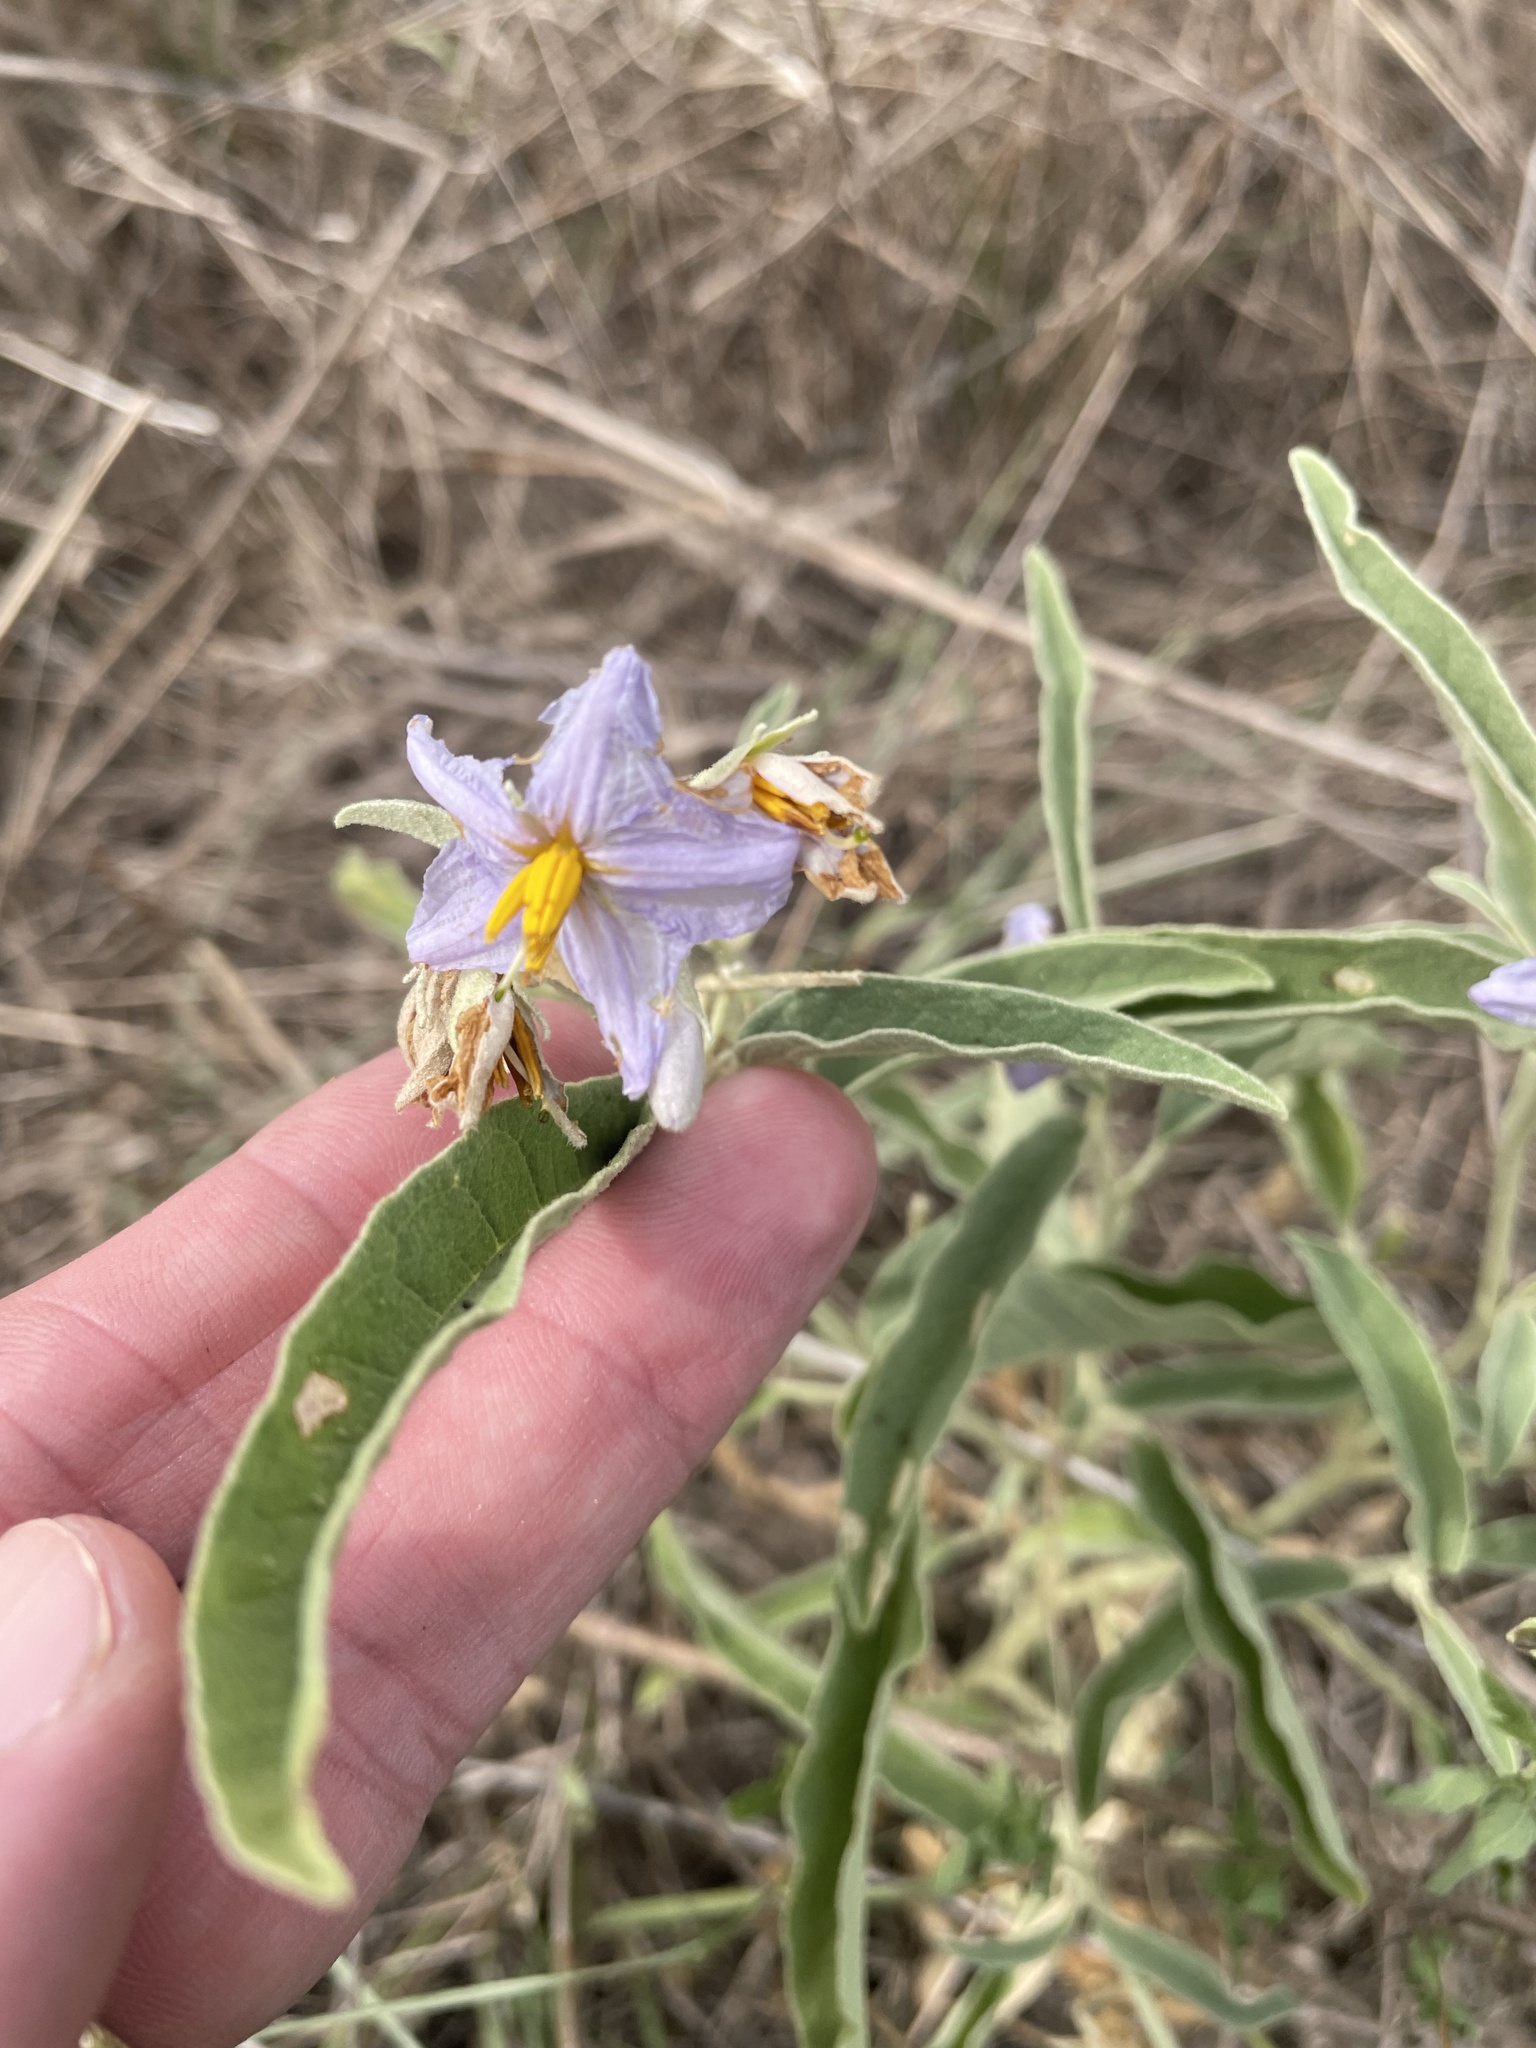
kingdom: Plantae
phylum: Tracheophyta
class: Magnoliopsida
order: Solanales
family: Solanaceae
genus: Solanum
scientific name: Solanum elaeagnifolium
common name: Silverleaf nightshade
